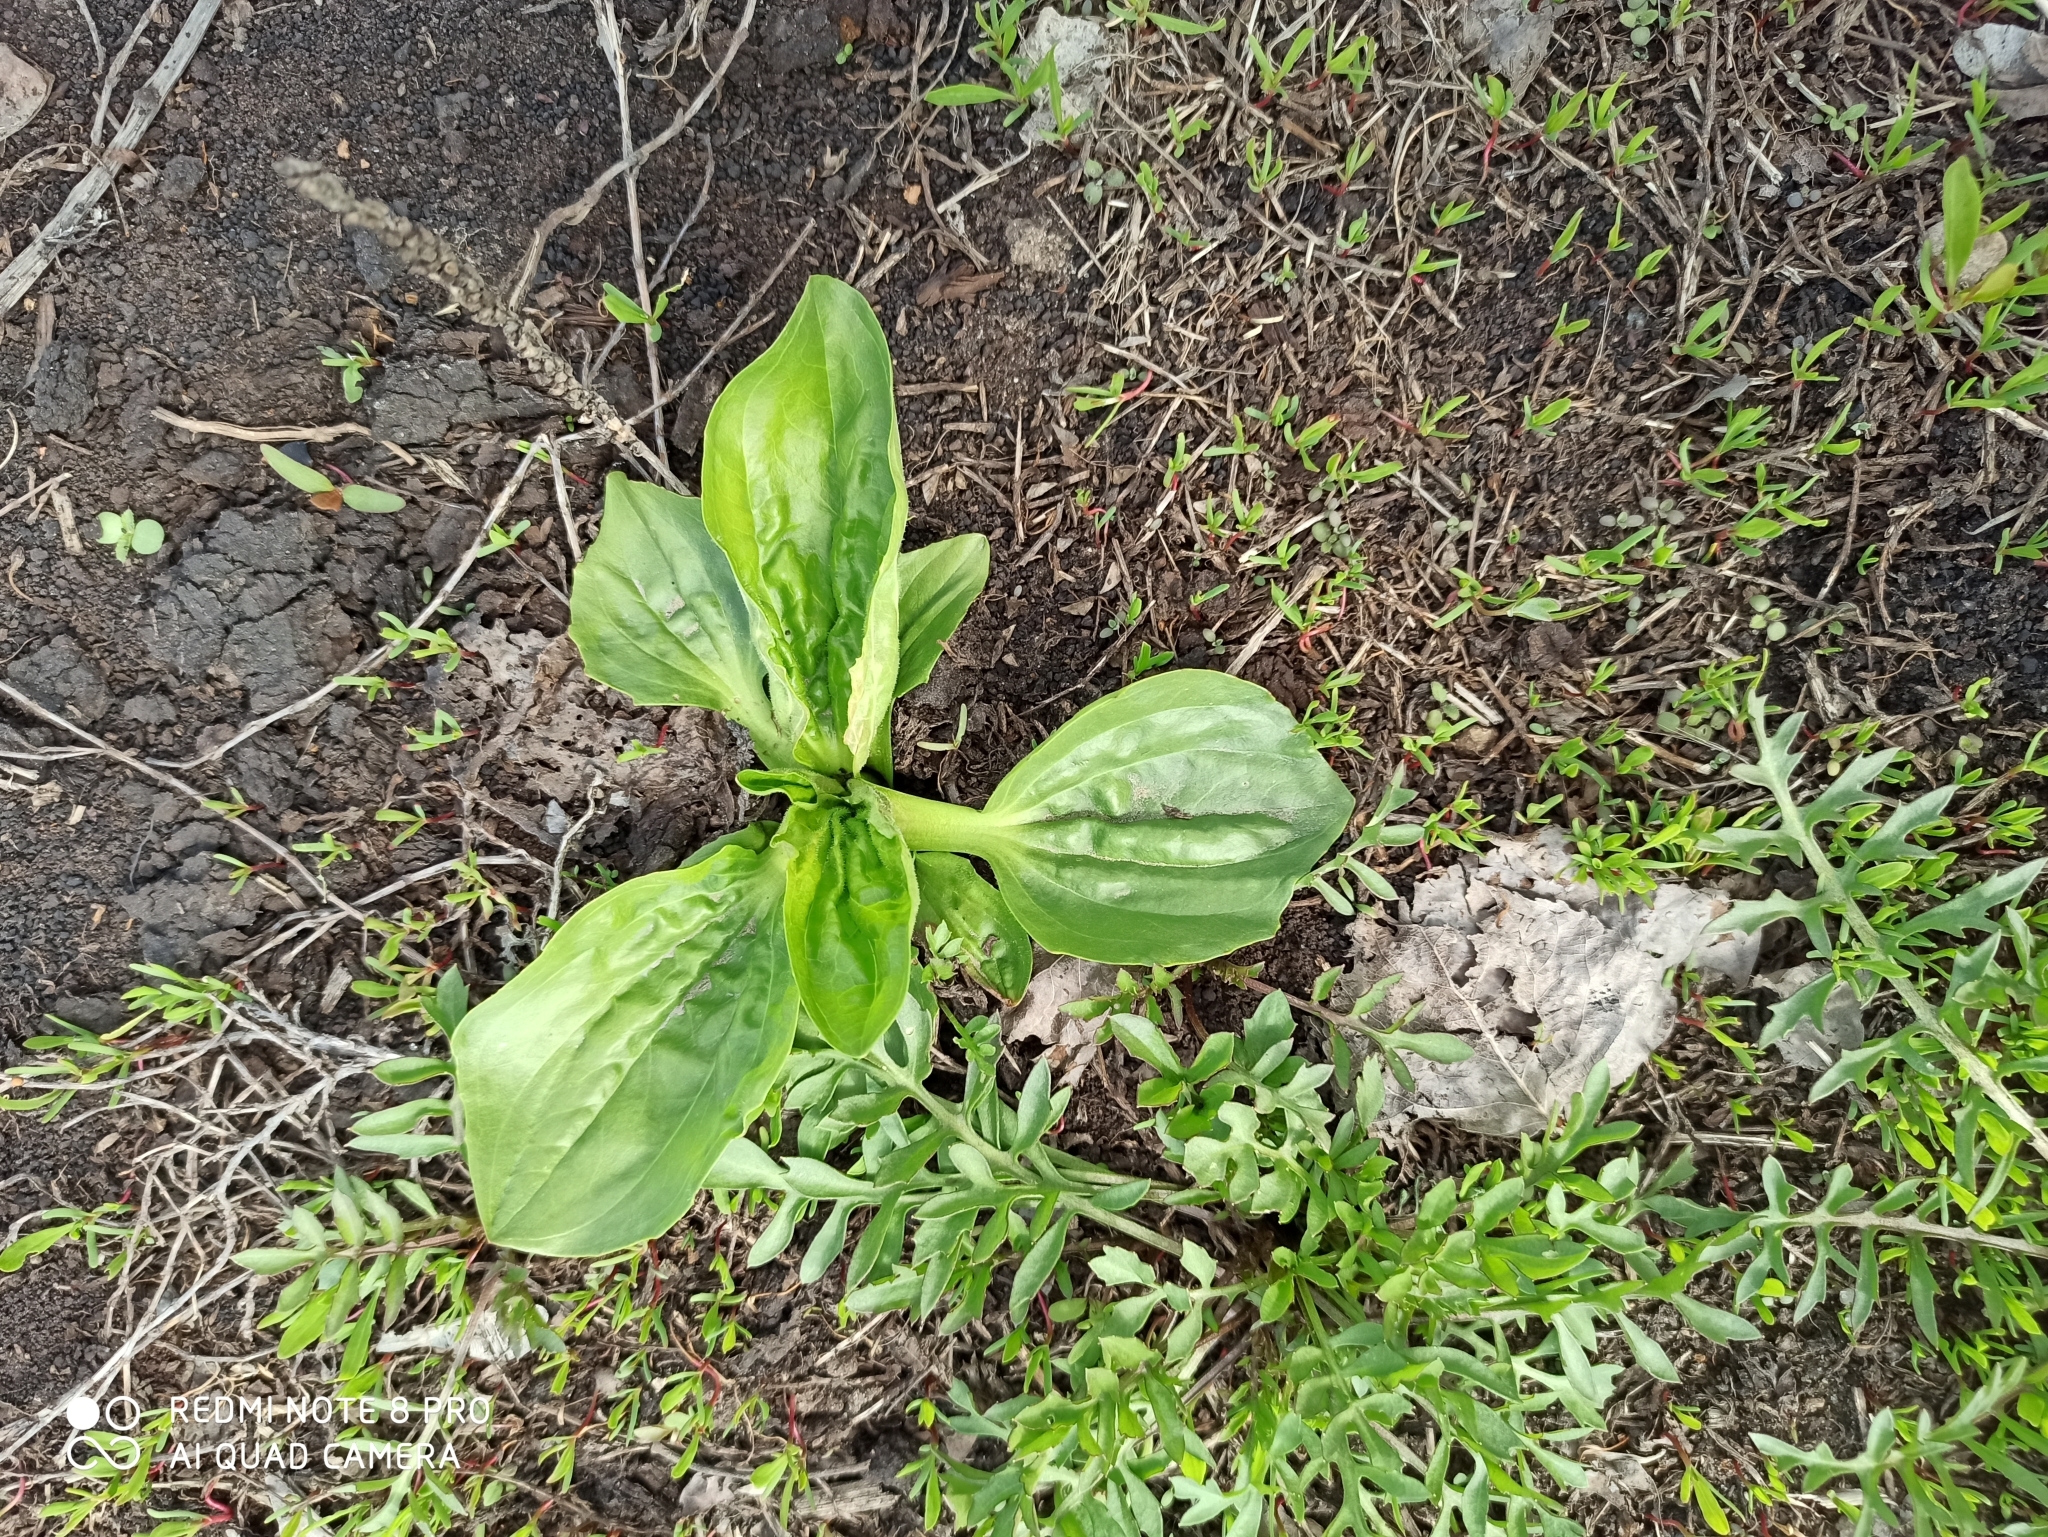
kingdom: Plantae
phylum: Tracheophyta
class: Magnoliopsida
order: Lamiales
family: Plantaginaceae
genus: Plantago
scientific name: Plantago major
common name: Common plantain
